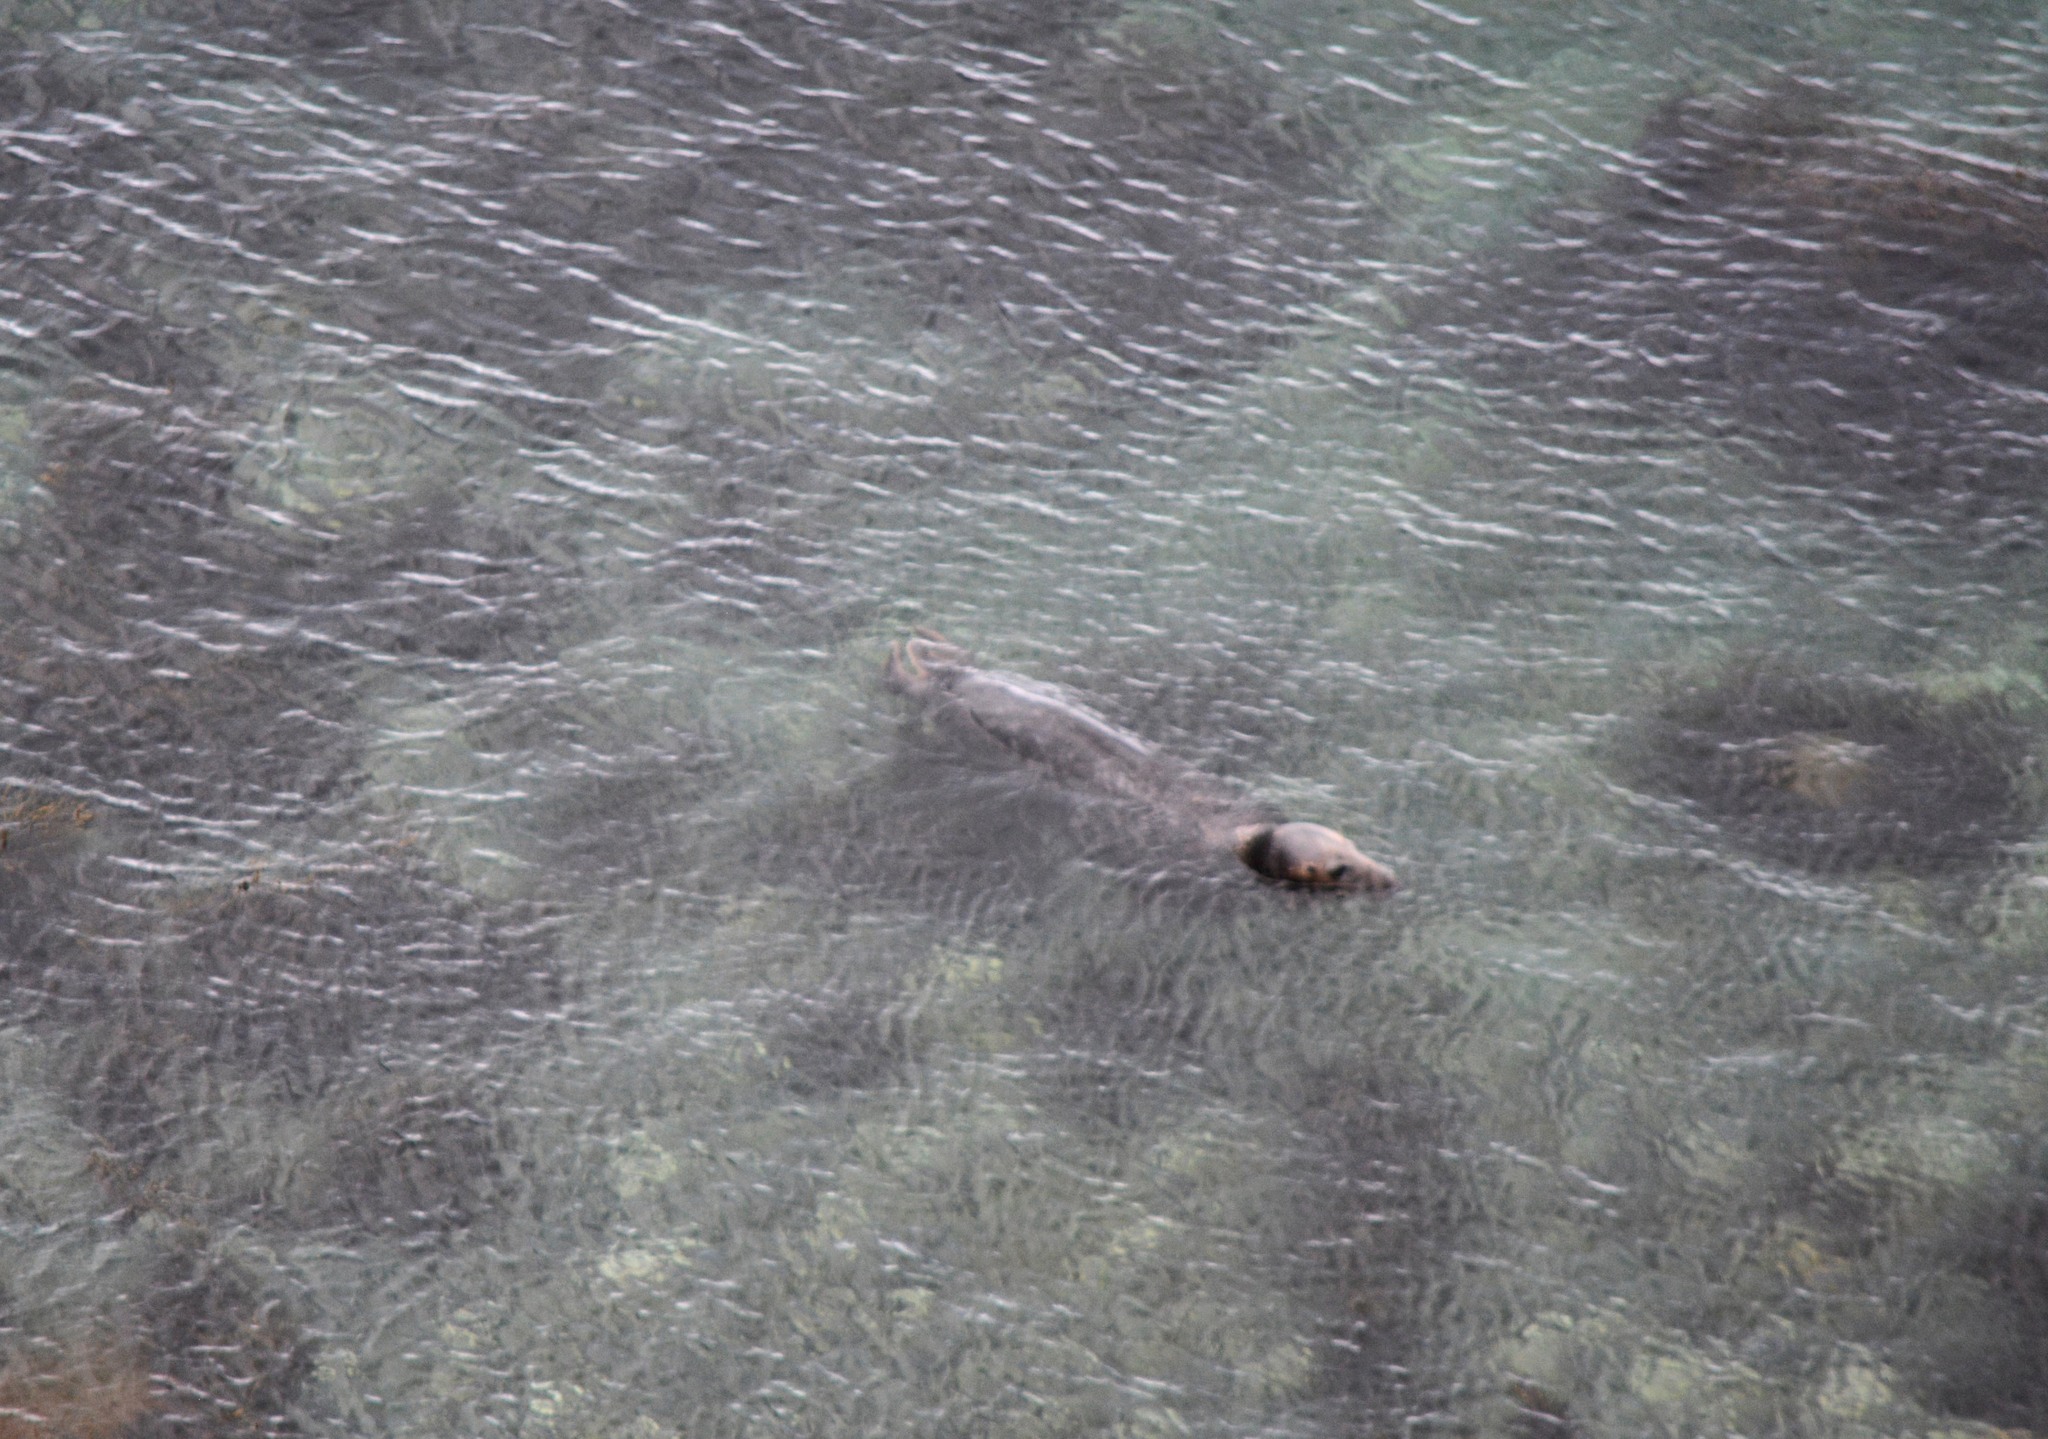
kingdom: Animalia
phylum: Chordata
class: Mammalia
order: Carnivora
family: Phocidae
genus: Halichoerus
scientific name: Halichoerus grypus
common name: Grey seal
